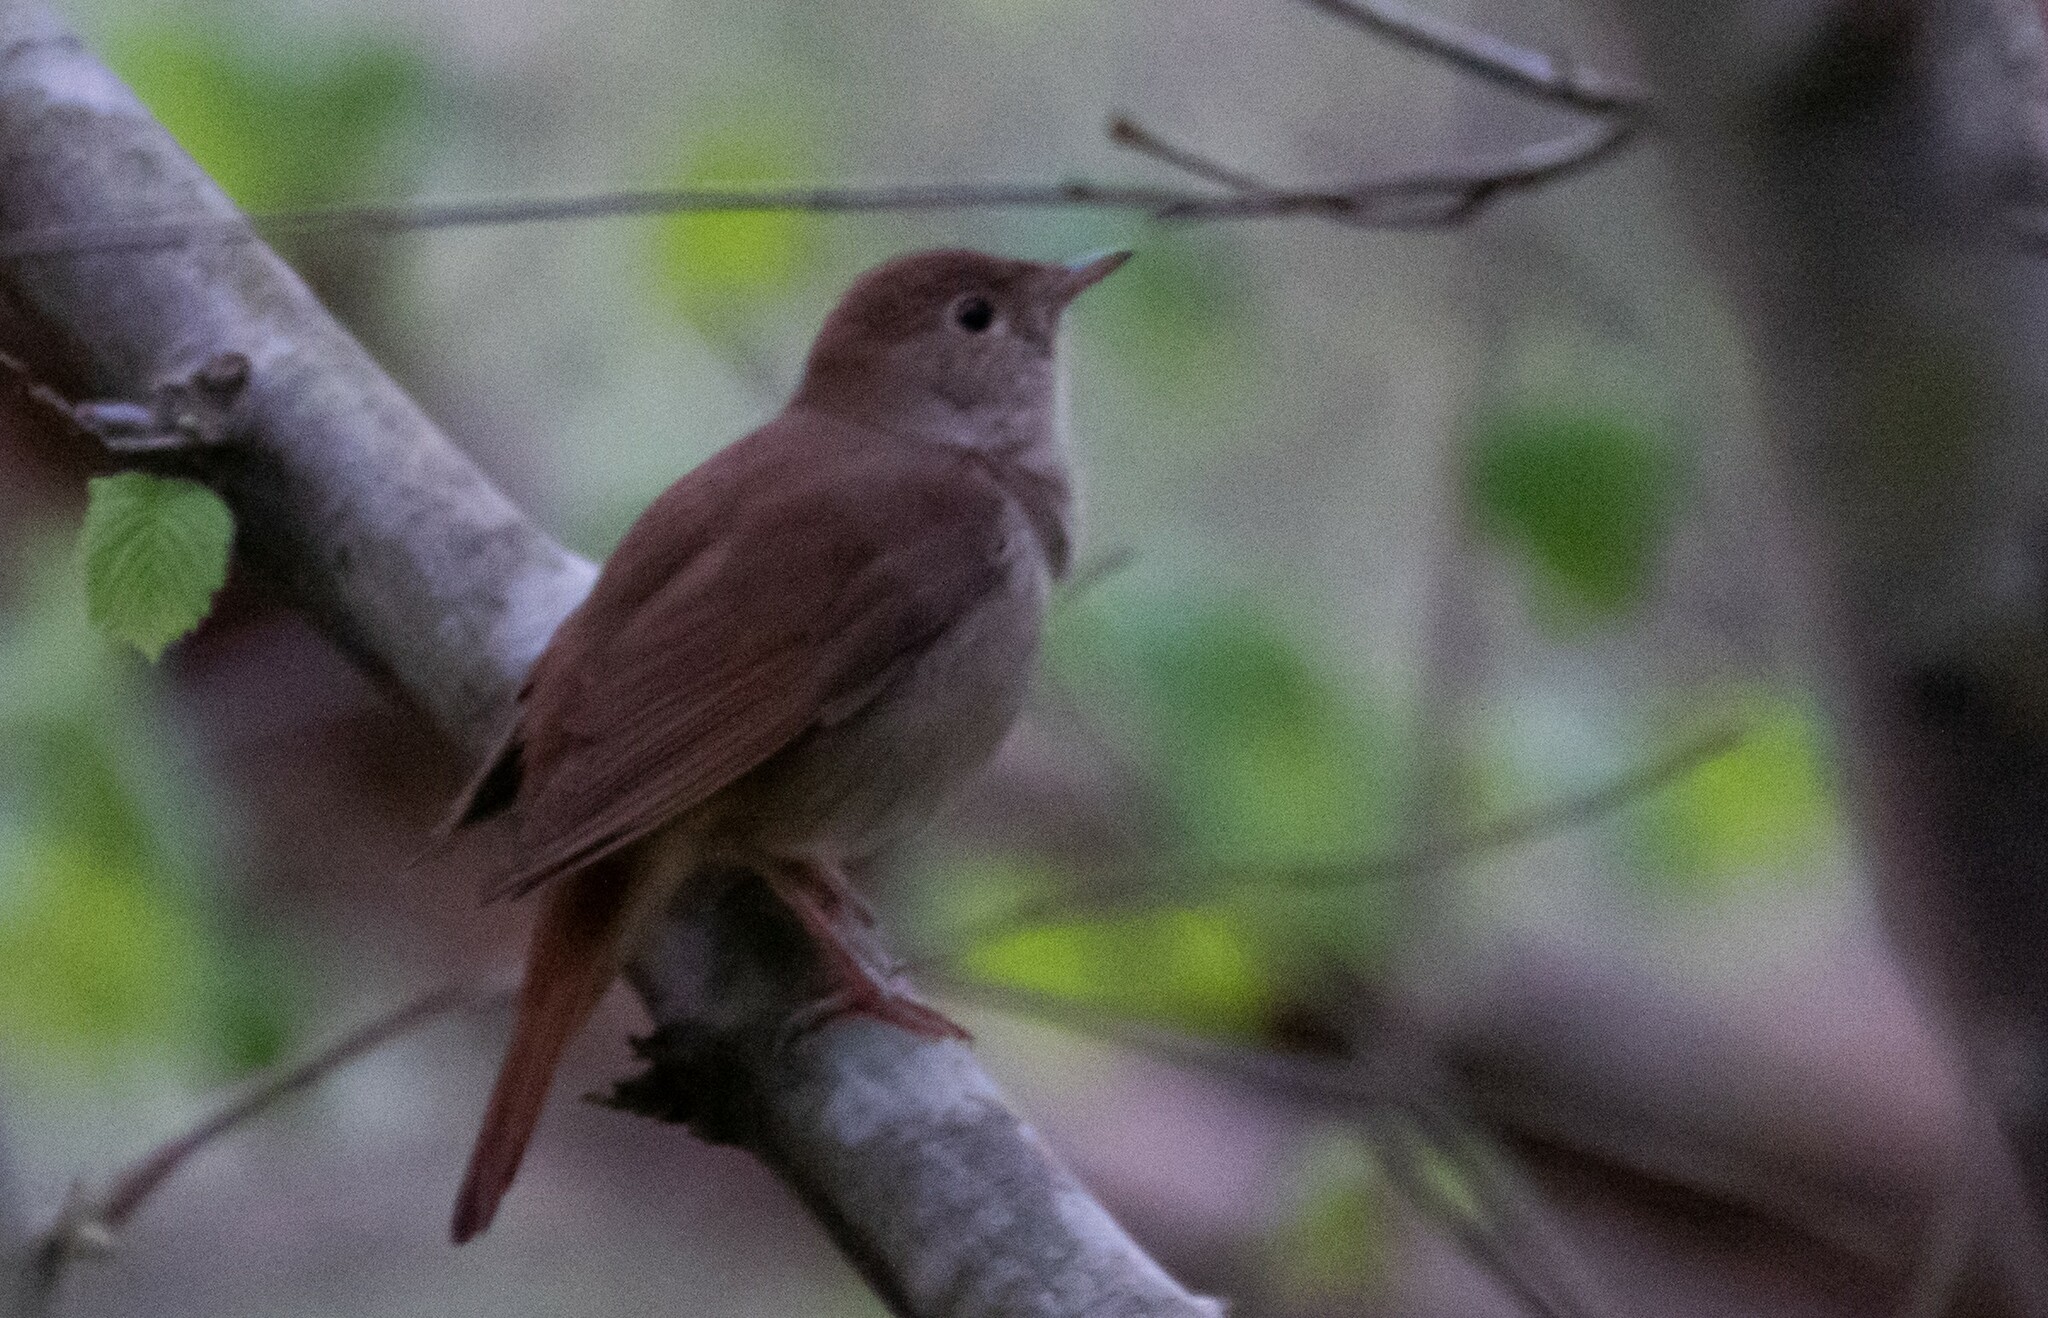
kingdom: Animalia
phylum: Chordata
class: Aves
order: Passeriformes
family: Muscicapidae
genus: Luscinia
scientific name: Luscinia megarhynchos
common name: Common nightingale
